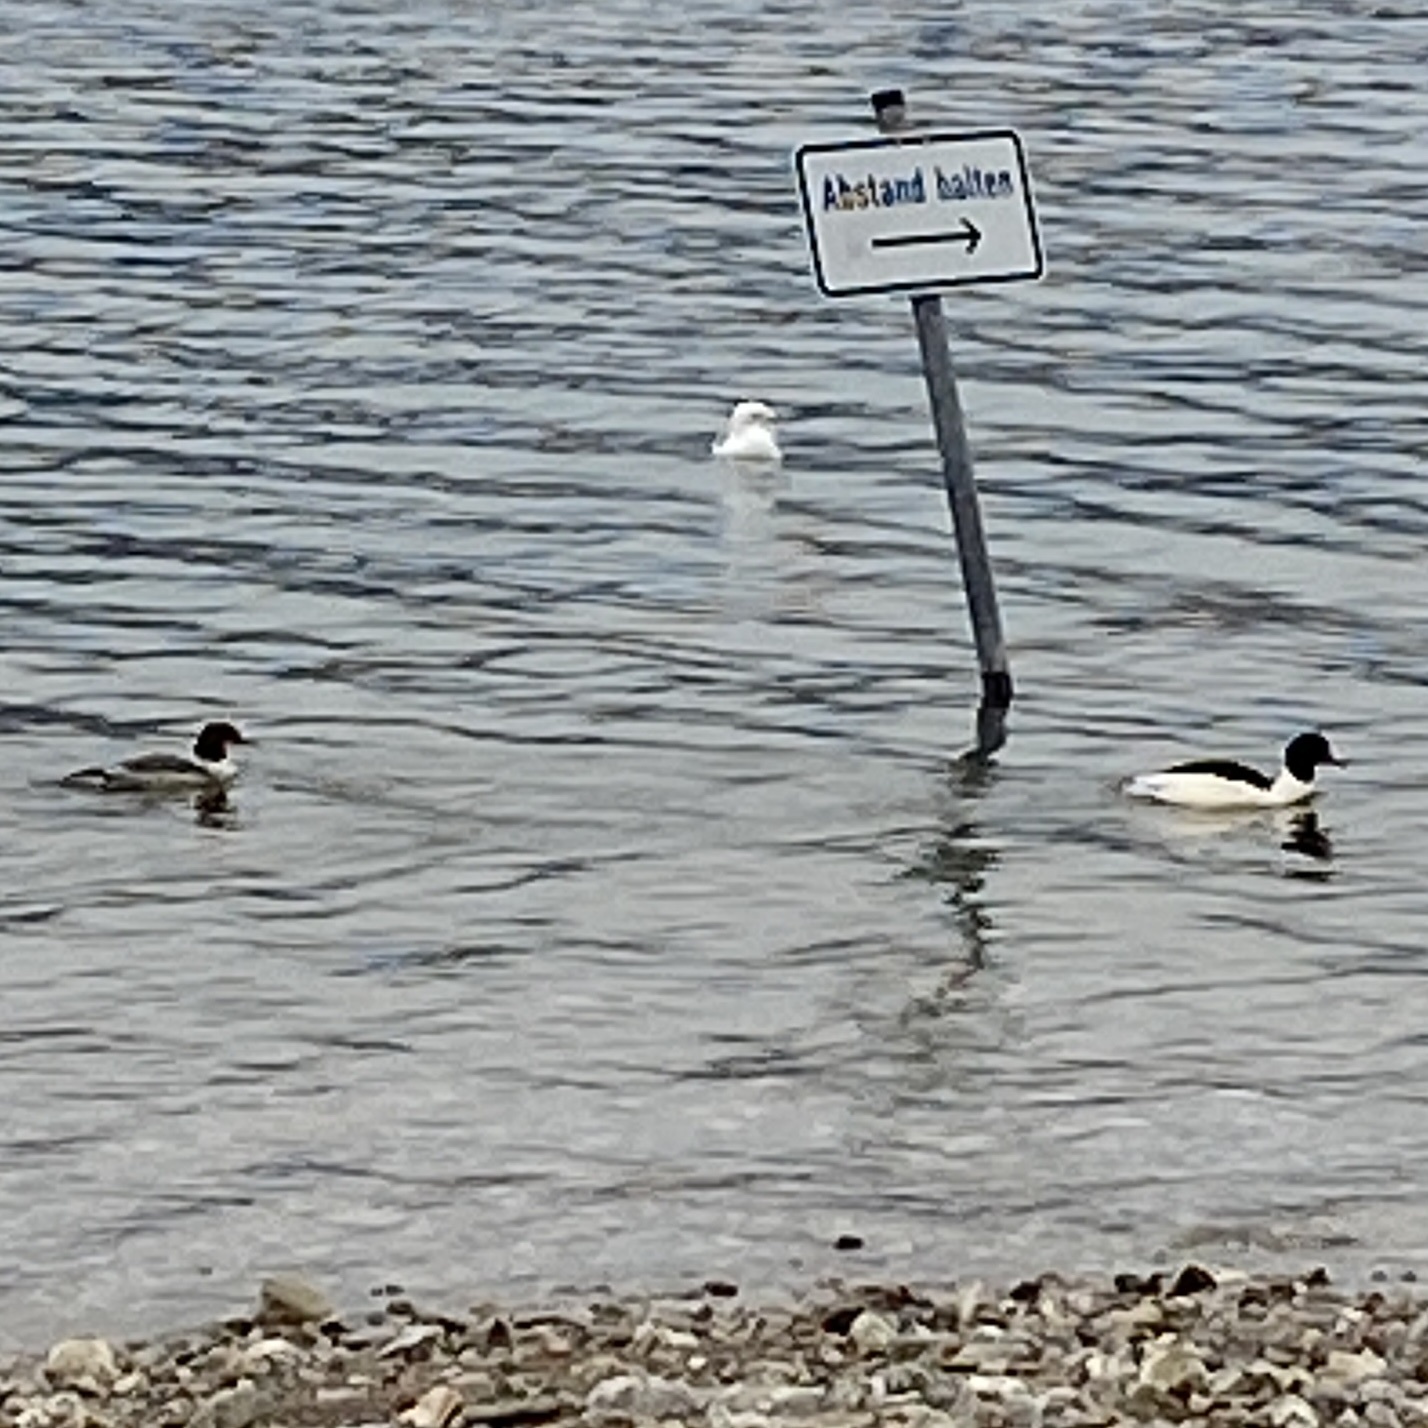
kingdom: Animalia
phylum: Chordata
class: Aves
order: Anseriformes
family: Anatidae
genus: Mergus
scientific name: Mergus merganser
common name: Common merganser
